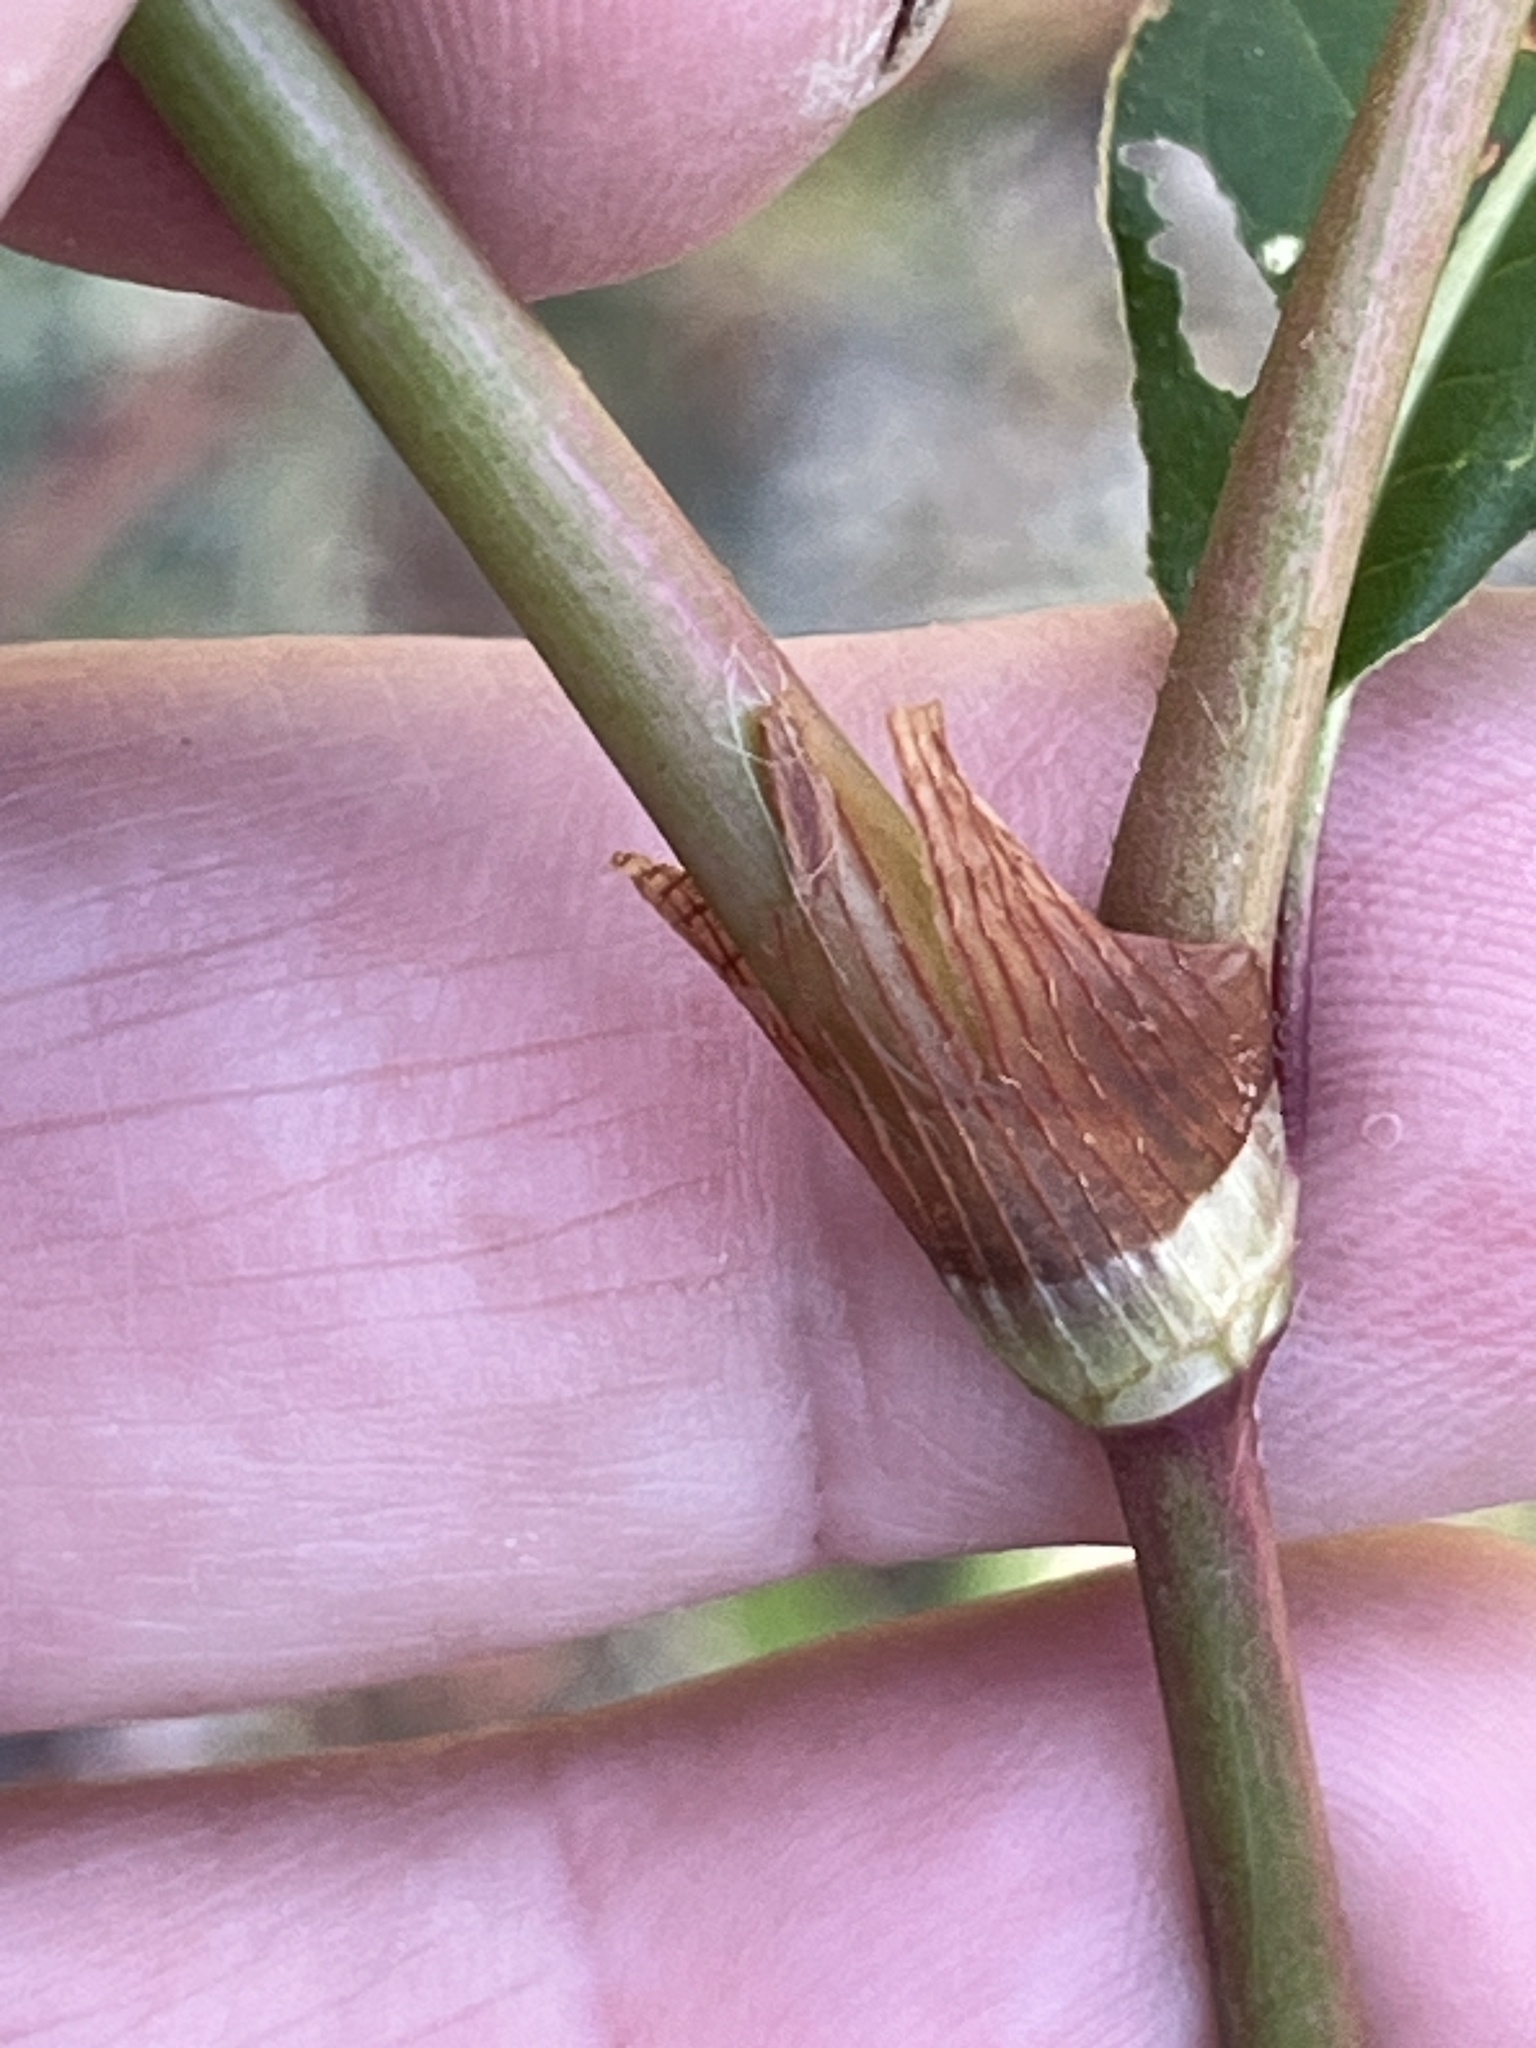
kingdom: Plantae
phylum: Tracheophyta
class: Magnoliopsida
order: Caryophyllales
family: Polygonaceae
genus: Persicaria
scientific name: Persicaria maculosa
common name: Redshank
